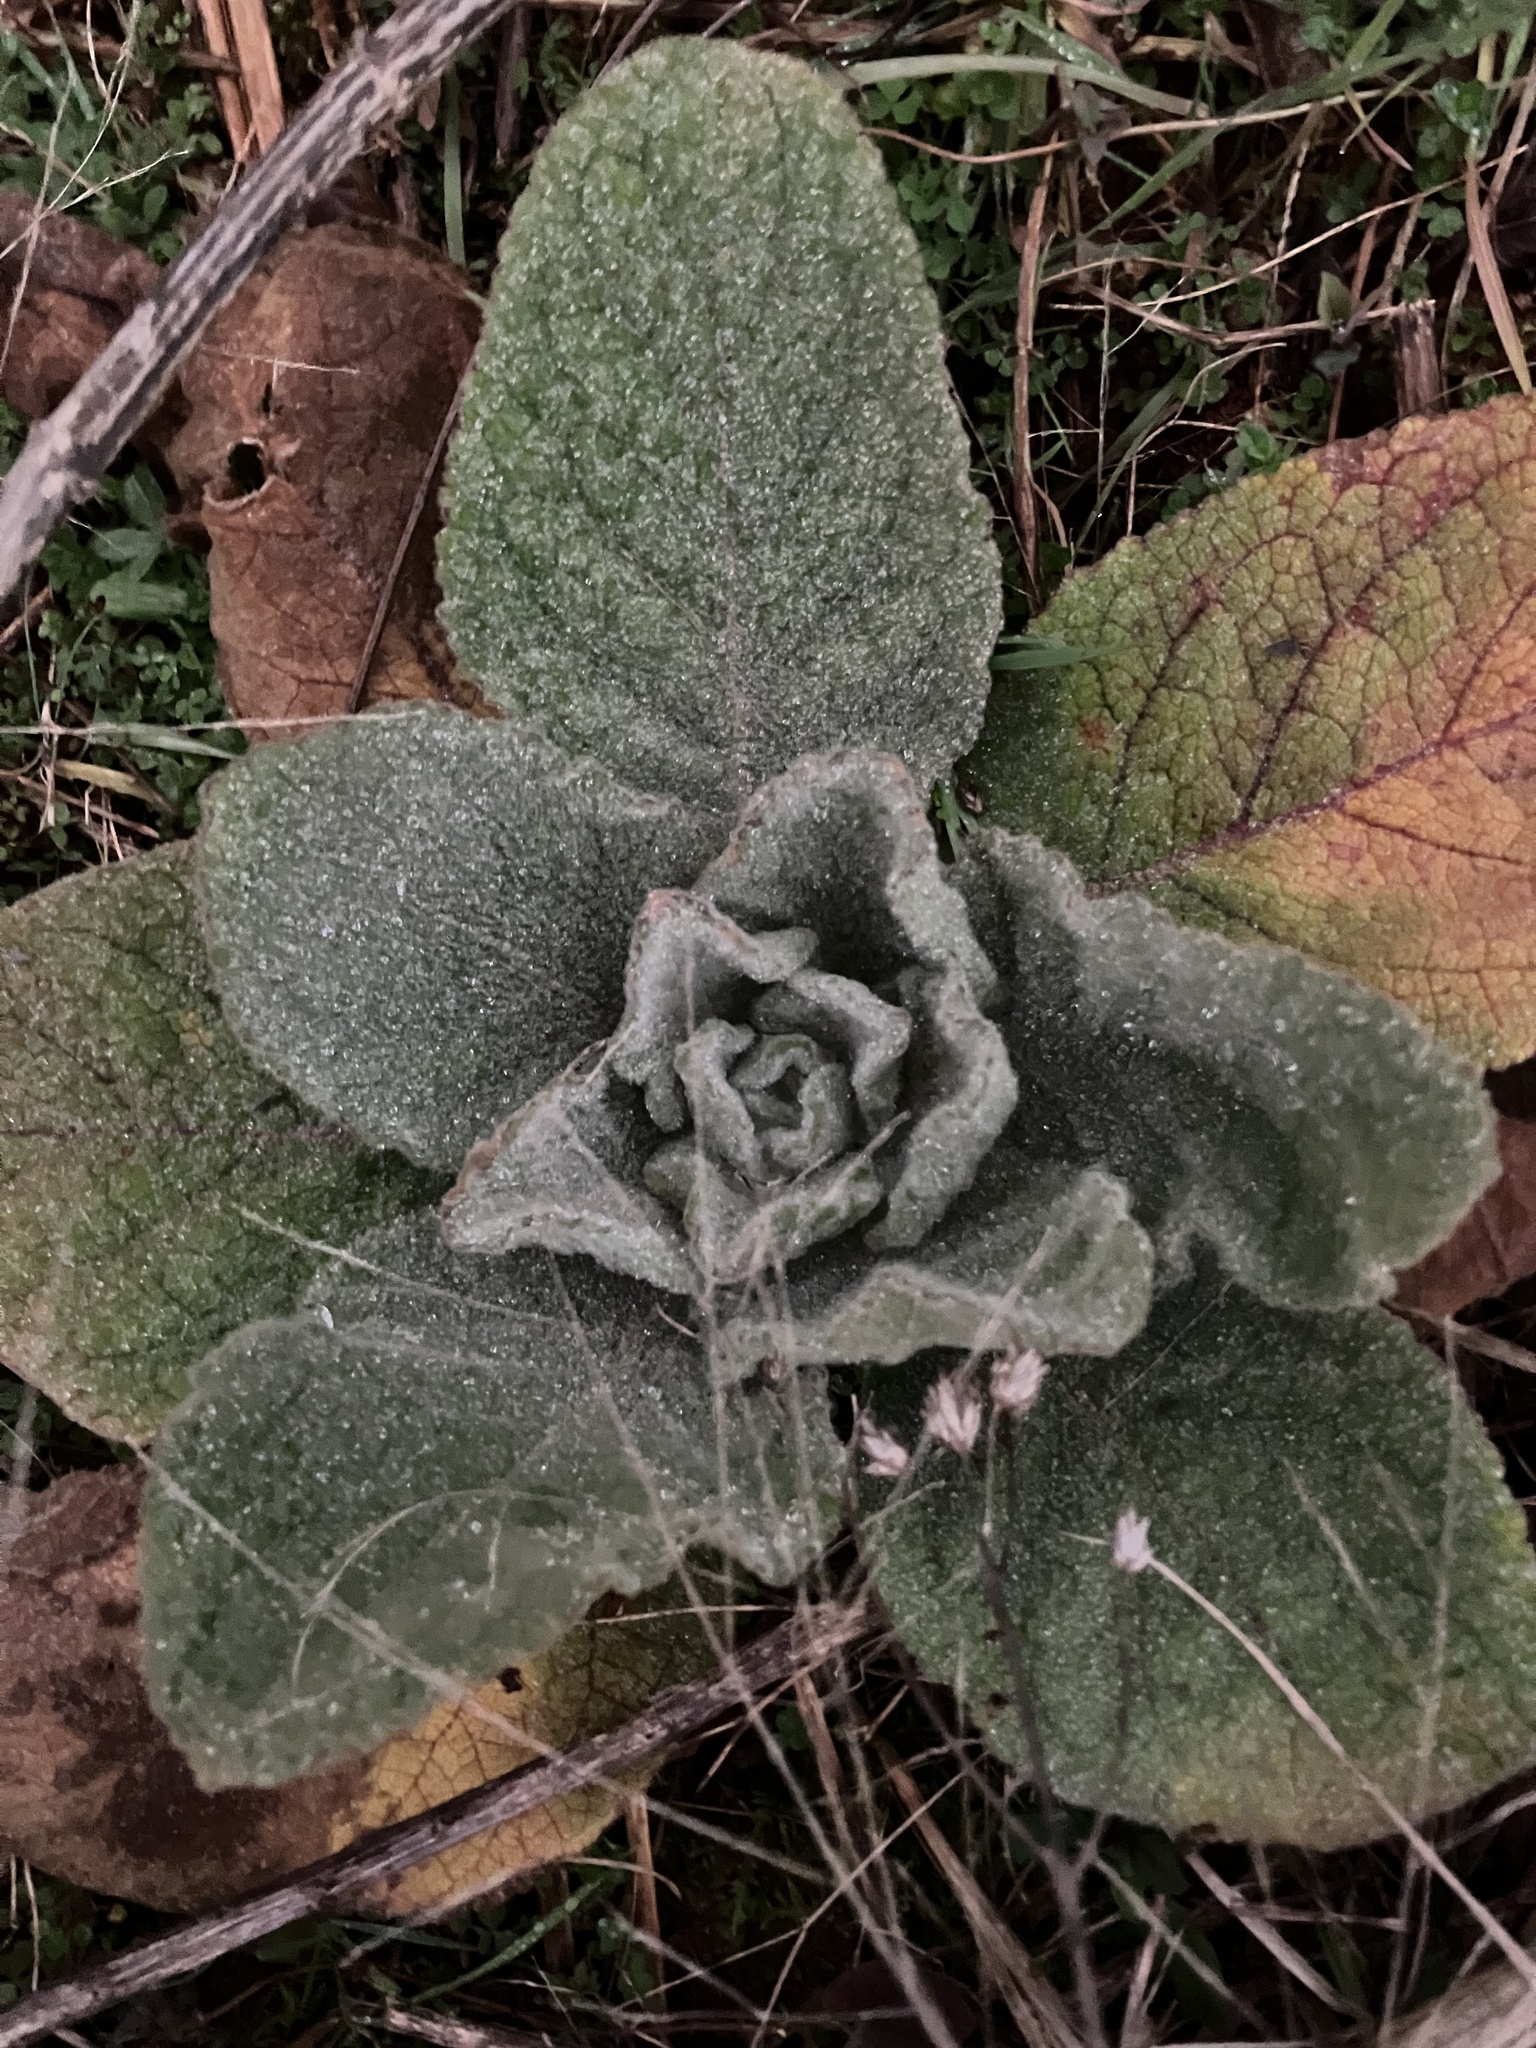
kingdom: Plantae
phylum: Tracheophyta
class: Magnoliopsida
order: Lamiales
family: Scrophulariaceae
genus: Verbascum
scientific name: Verbascum thapsus
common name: Common mullein
